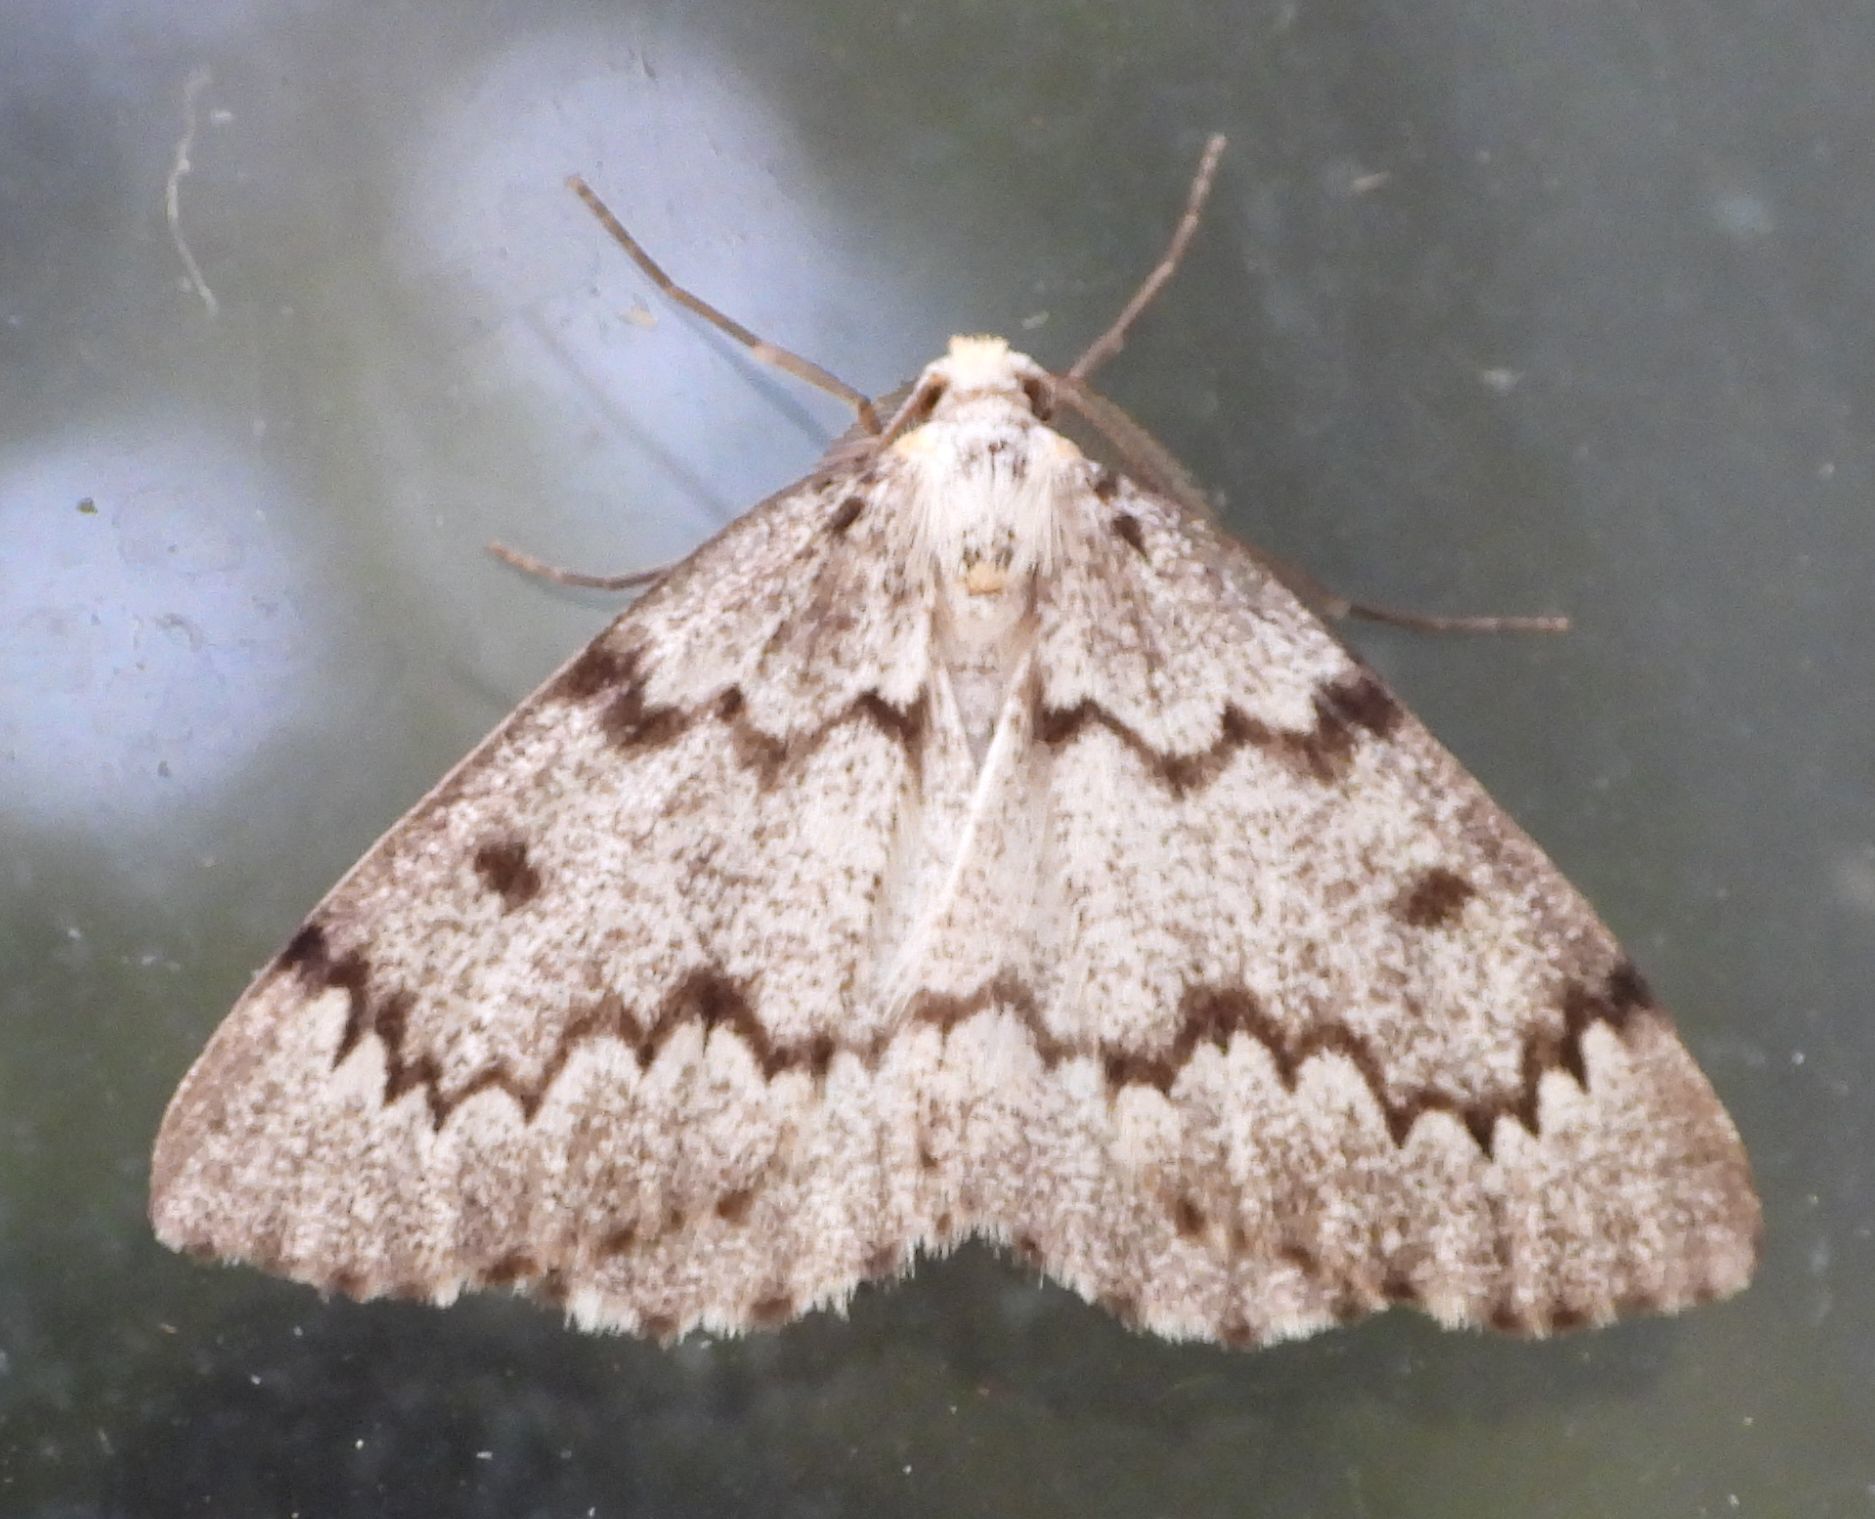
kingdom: Animalia
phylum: Arthropoda
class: Insecta
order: Lepidoptera
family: Geometridae
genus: Nepytia
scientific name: Nepytia canosaria
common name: False hemlock looper
